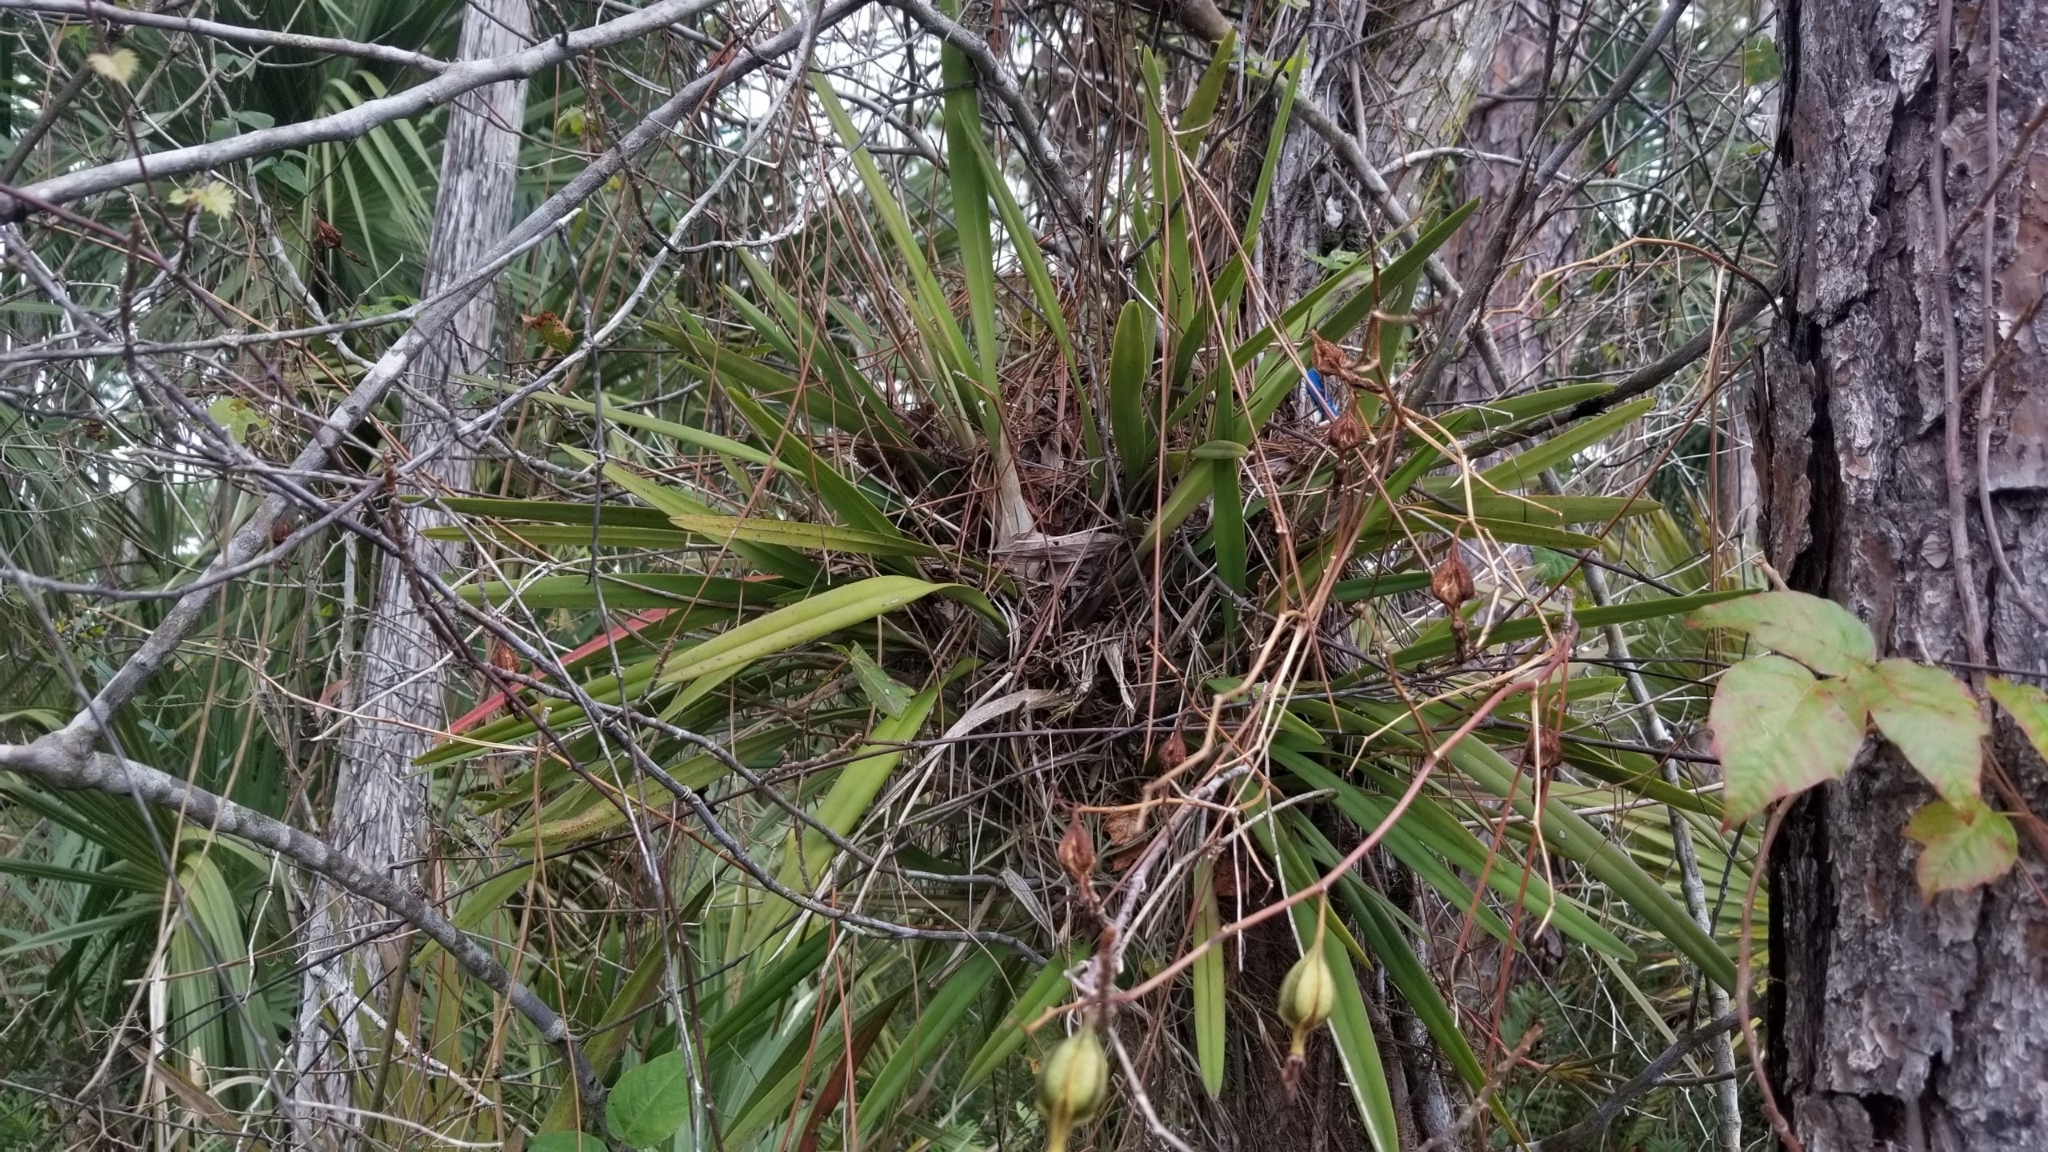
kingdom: Plantae
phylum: Tracheophyta
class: Liliopsida
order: Asparagales
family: Orchidaceae
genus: Encyclia
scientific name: Encyclia tampensis
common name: Florida butterfly orchid
